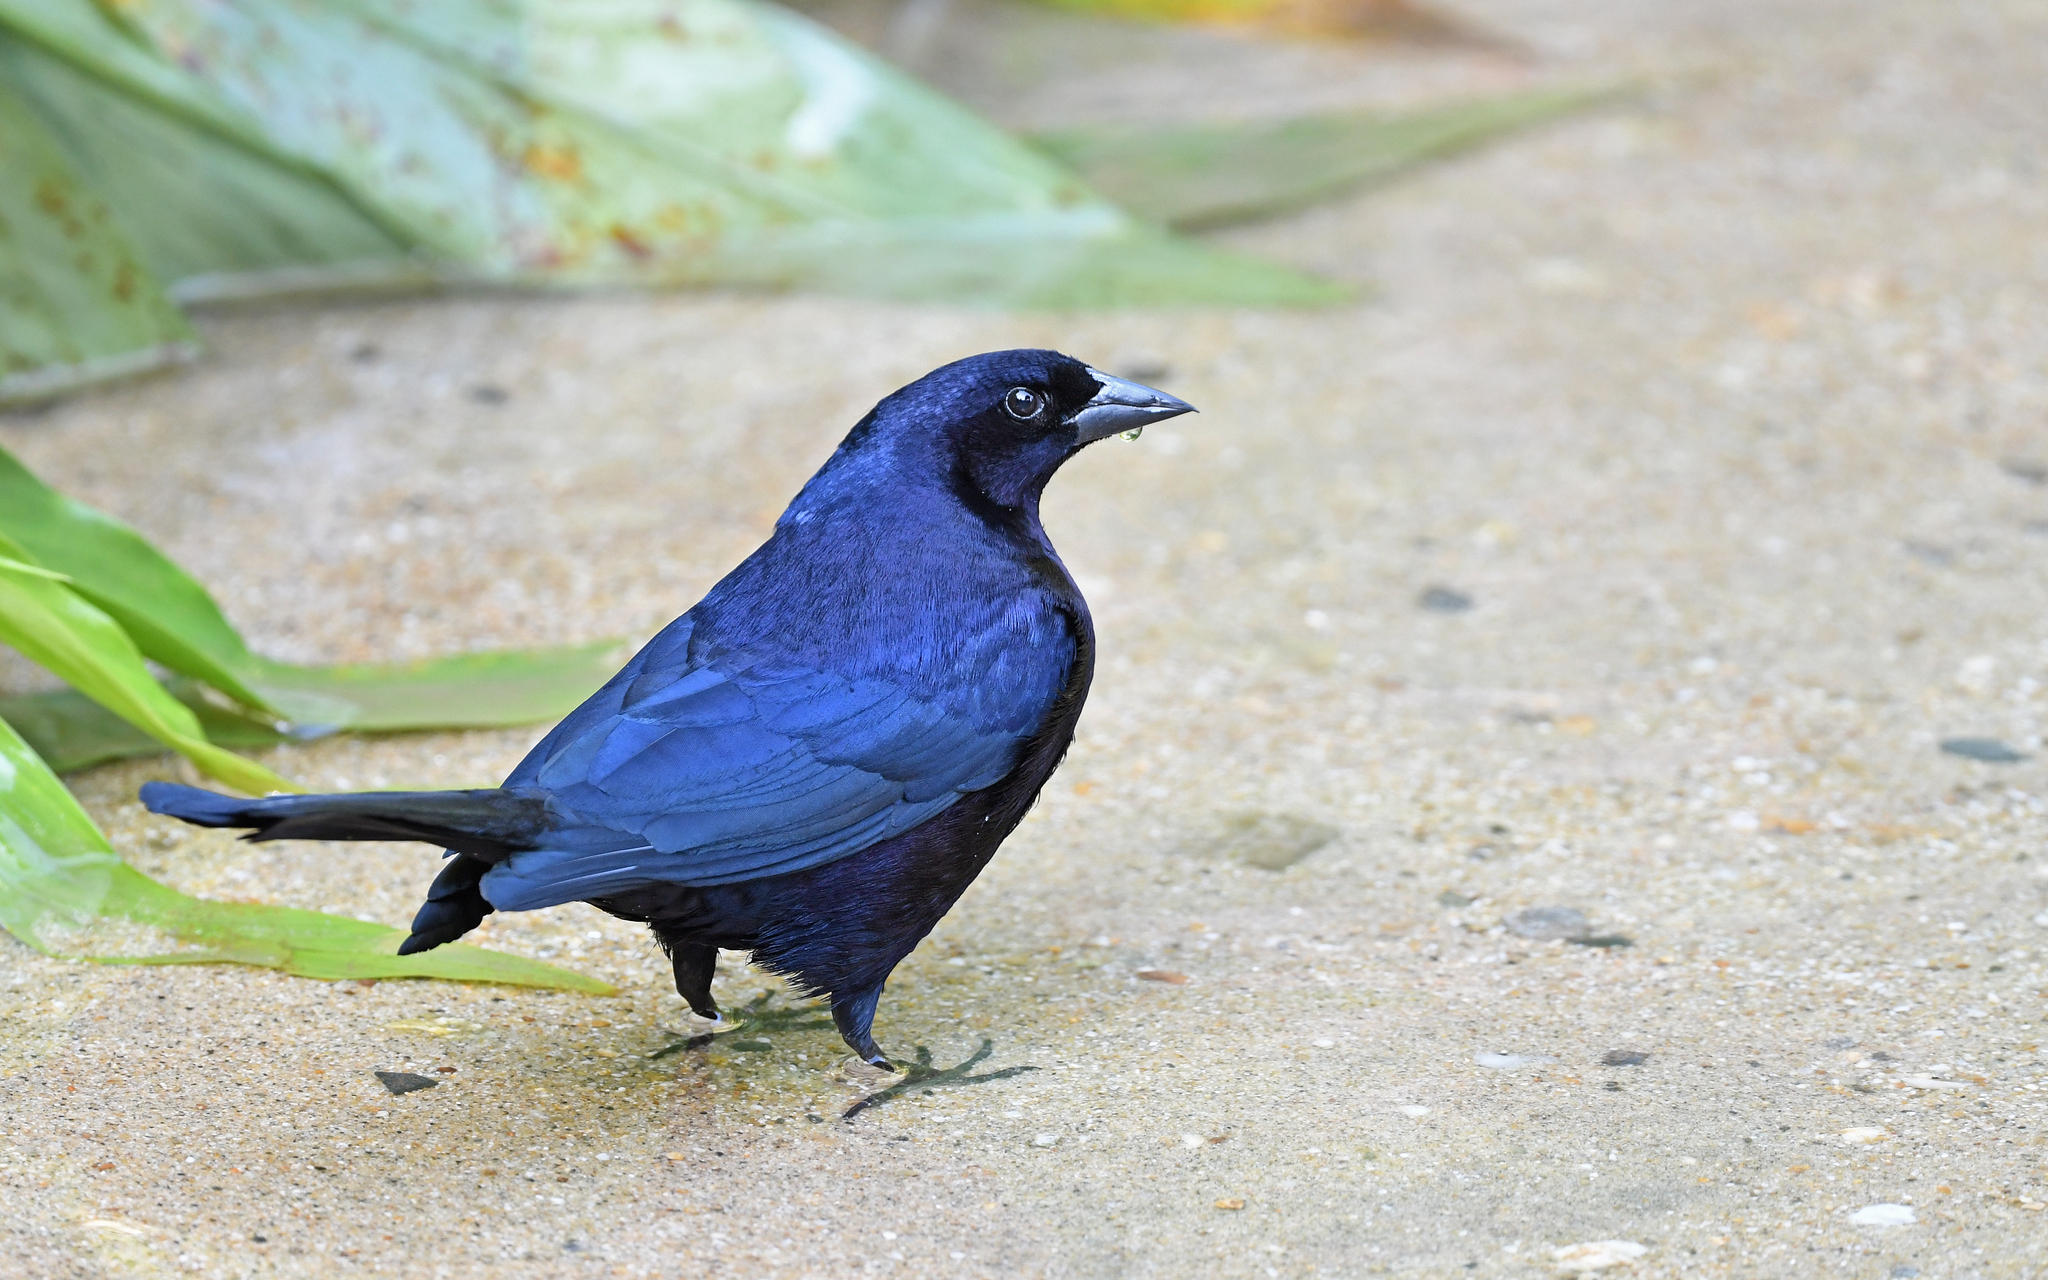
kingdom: Animalia
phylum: Chordata
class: Aves
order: Passeriformes
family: Icteridae
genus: Molothrus
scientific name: Molothrus bonariensis
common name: Shiny cowbird
